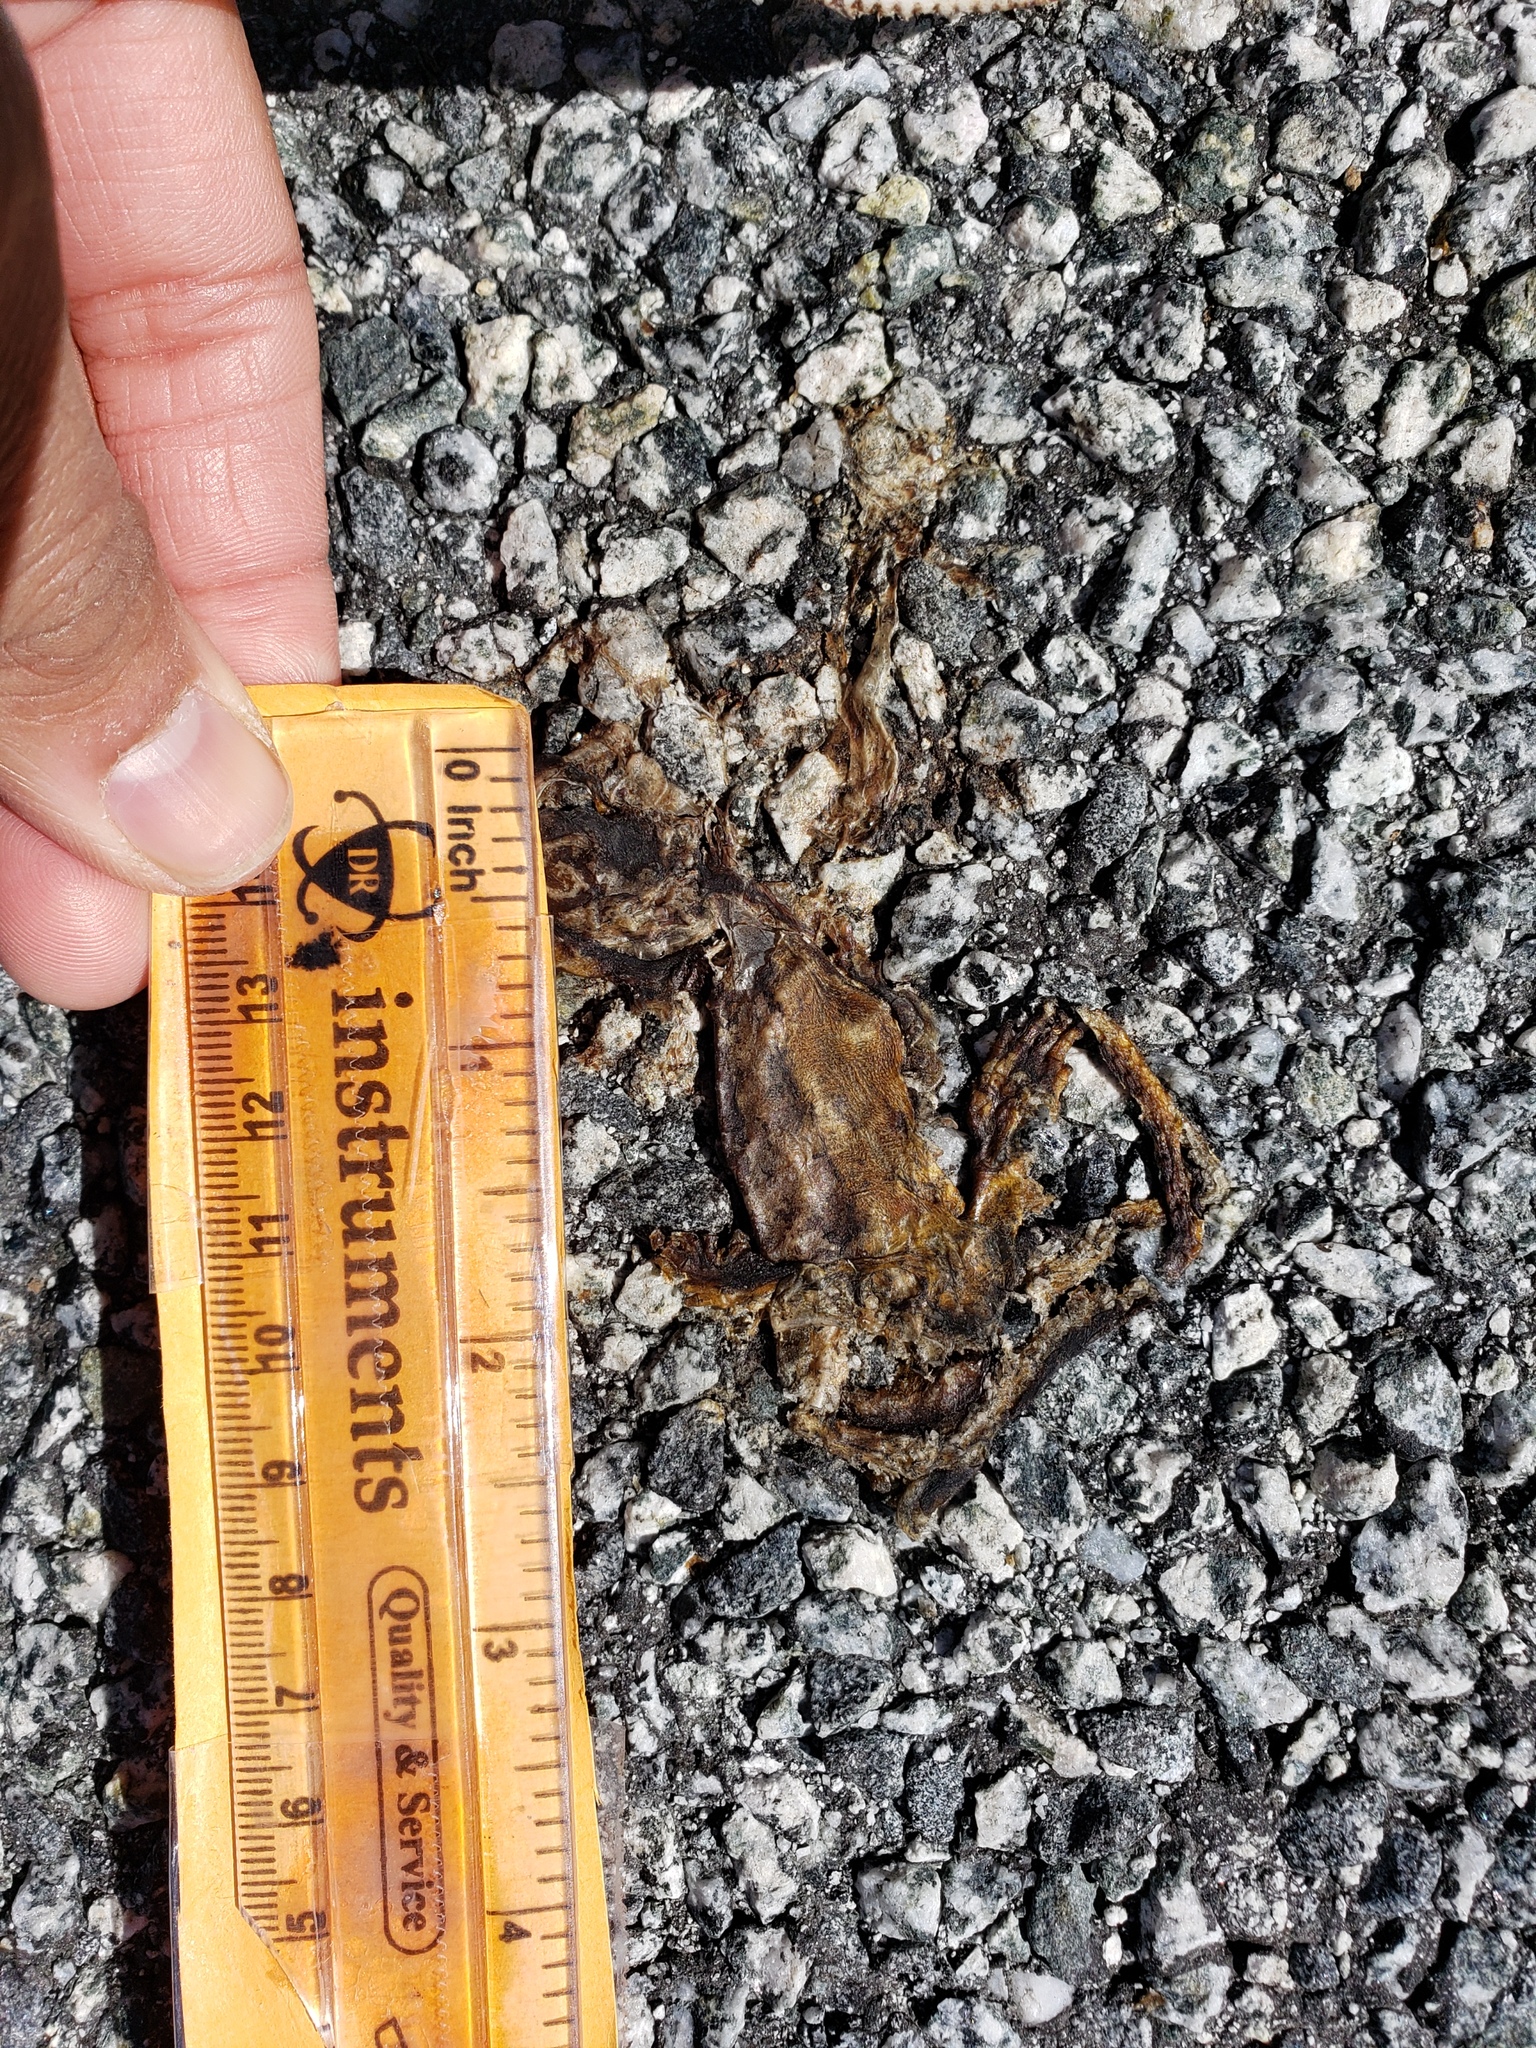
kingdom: Animalia
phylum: Chordata
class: Amphibia
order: Caudata
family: Salamandridae
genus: Taricha
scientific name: Taricha
